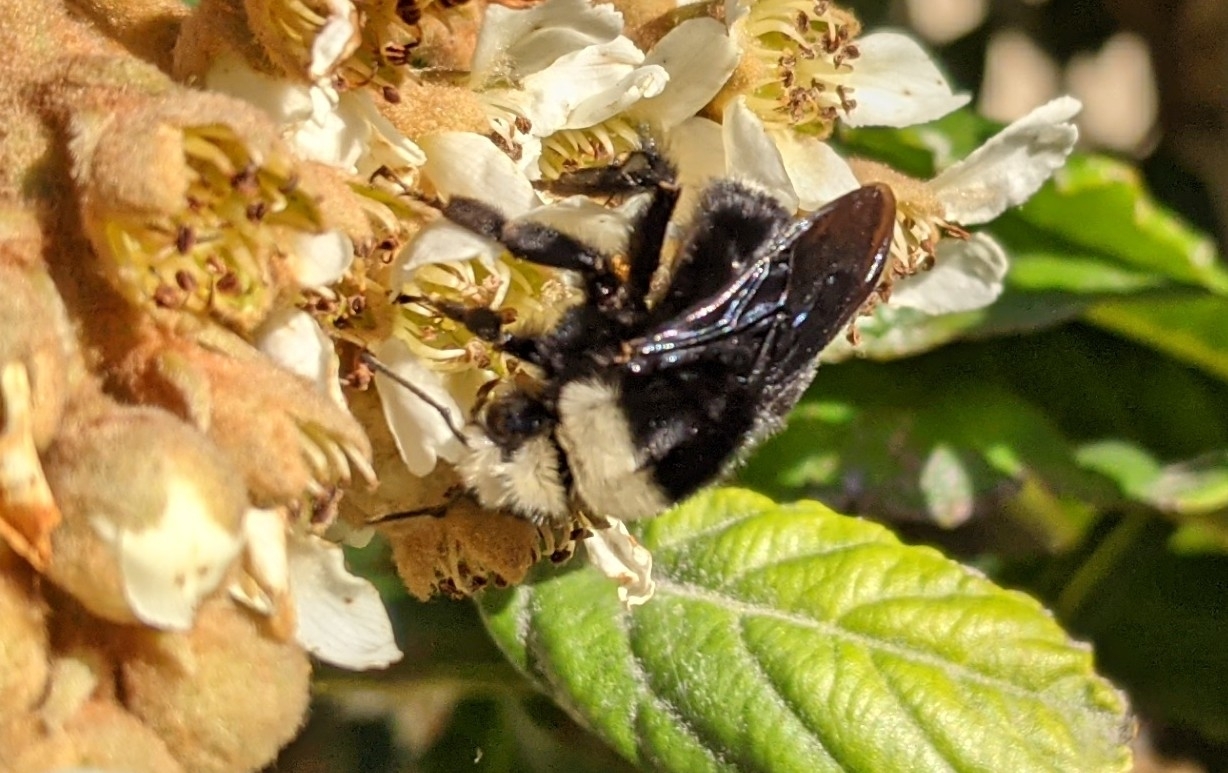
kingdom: Animalia
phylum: Arthropoda
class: Insecta
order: Hymenoptera
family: Apidae
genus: Pyrobombus
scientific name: Pyrobombus
